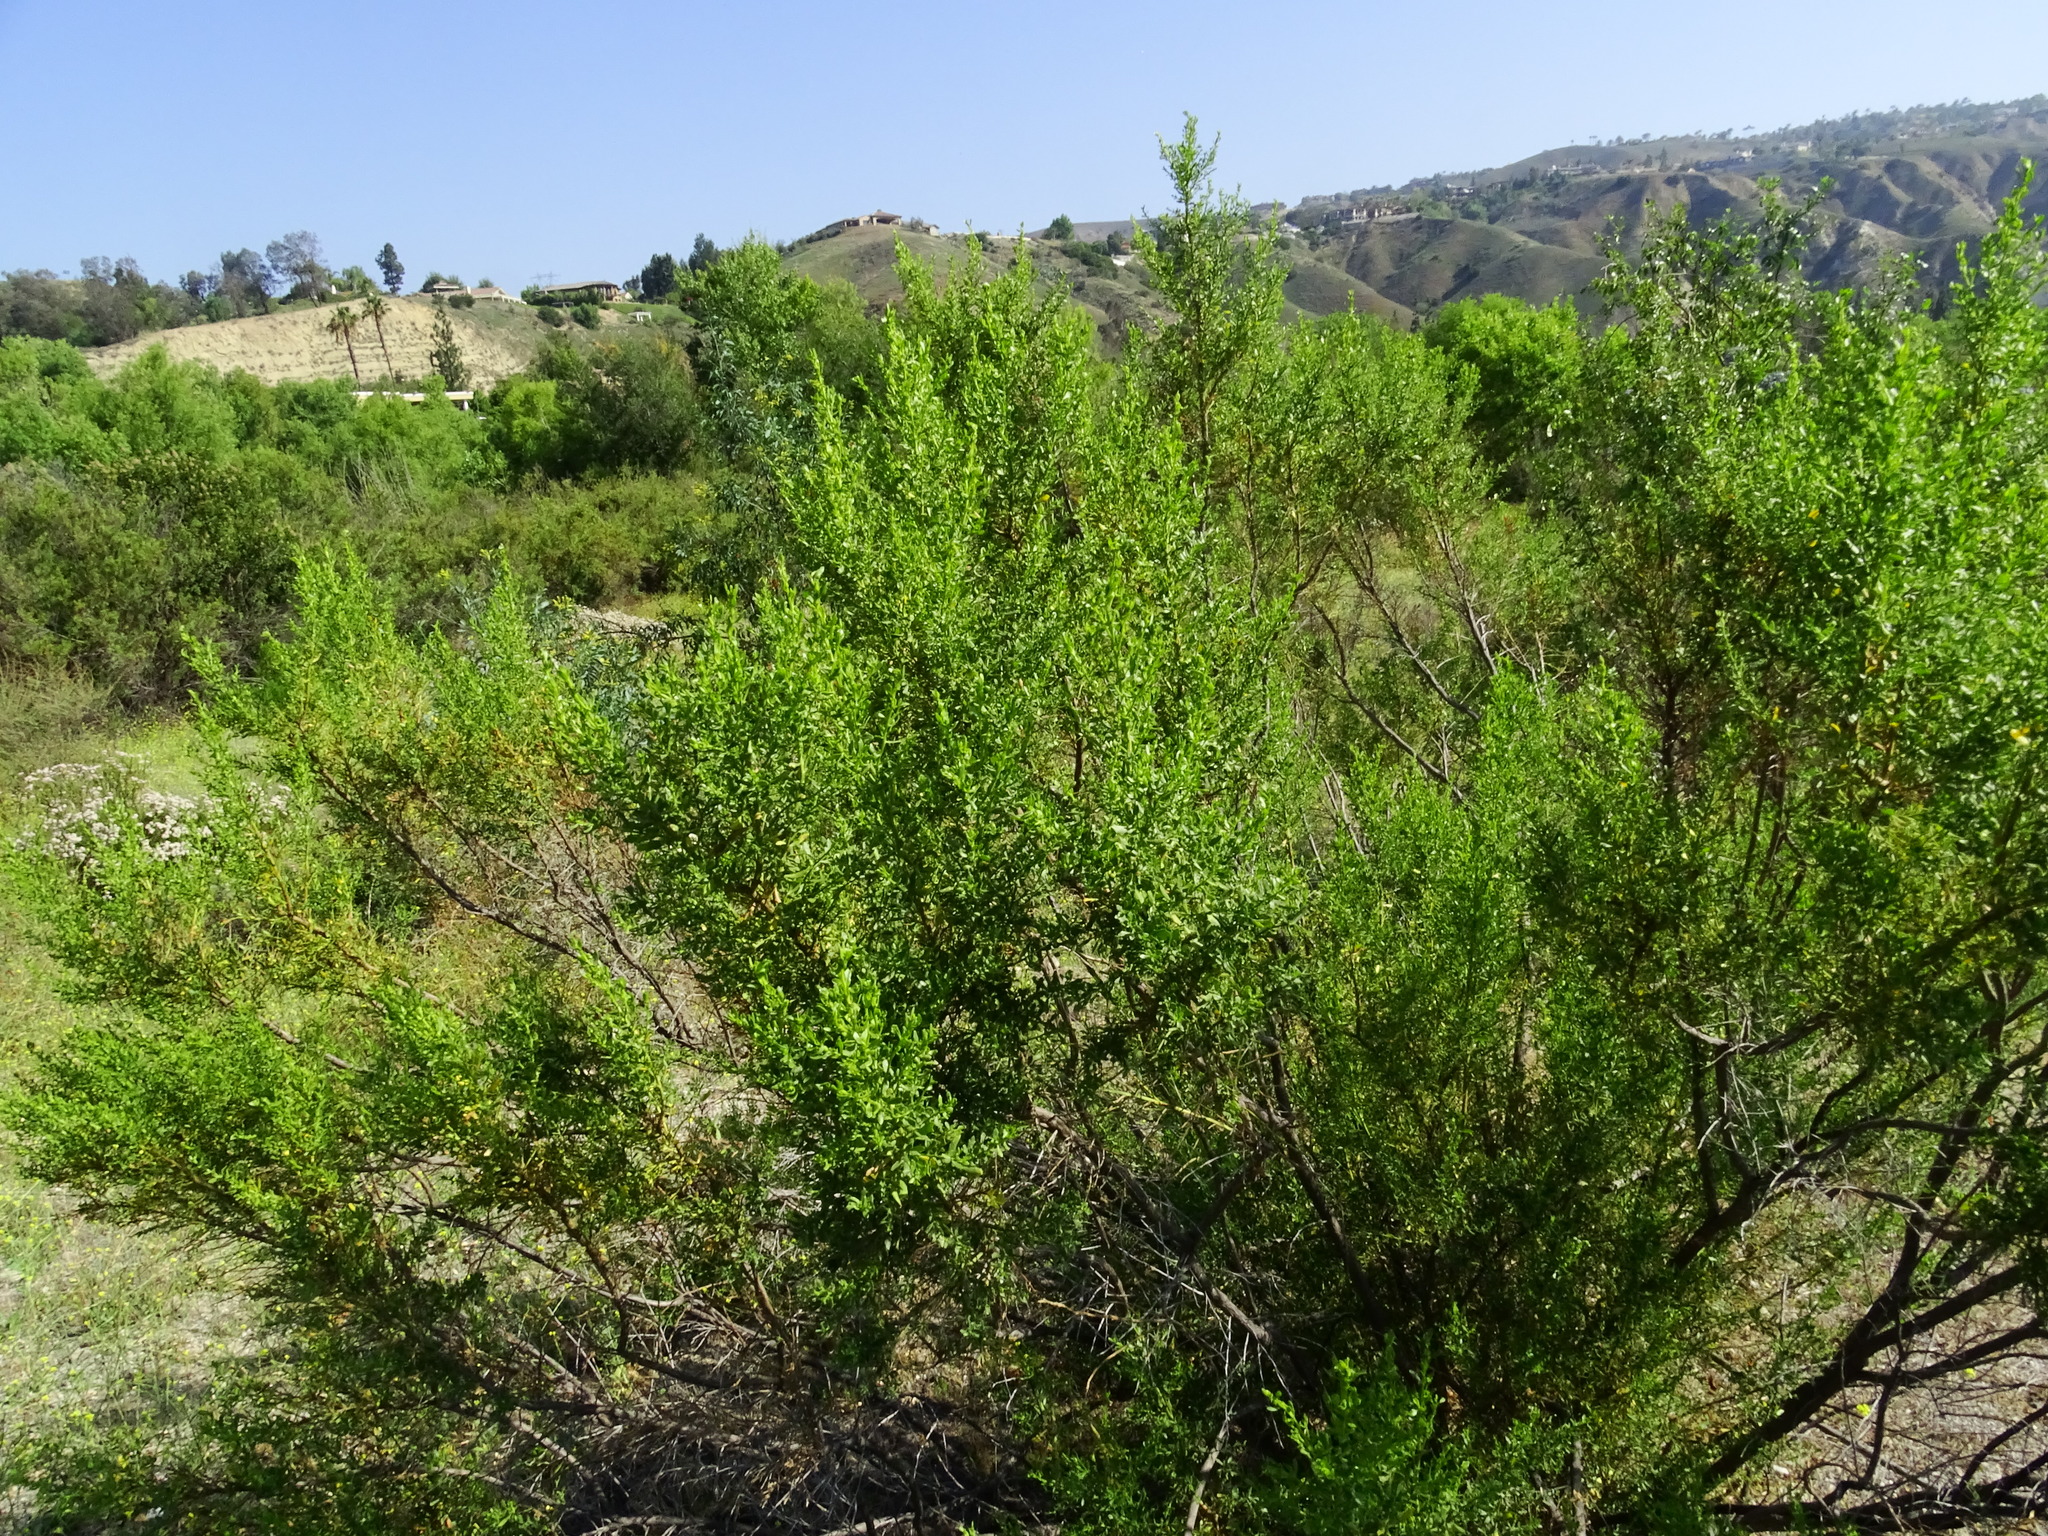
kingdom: Plantae
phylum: Tracheophyta
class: Magnoliopsida
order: Asterales
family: Asteraceae
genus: Baccharis
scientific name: Baccharis pilularis
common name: Coyotebrush
